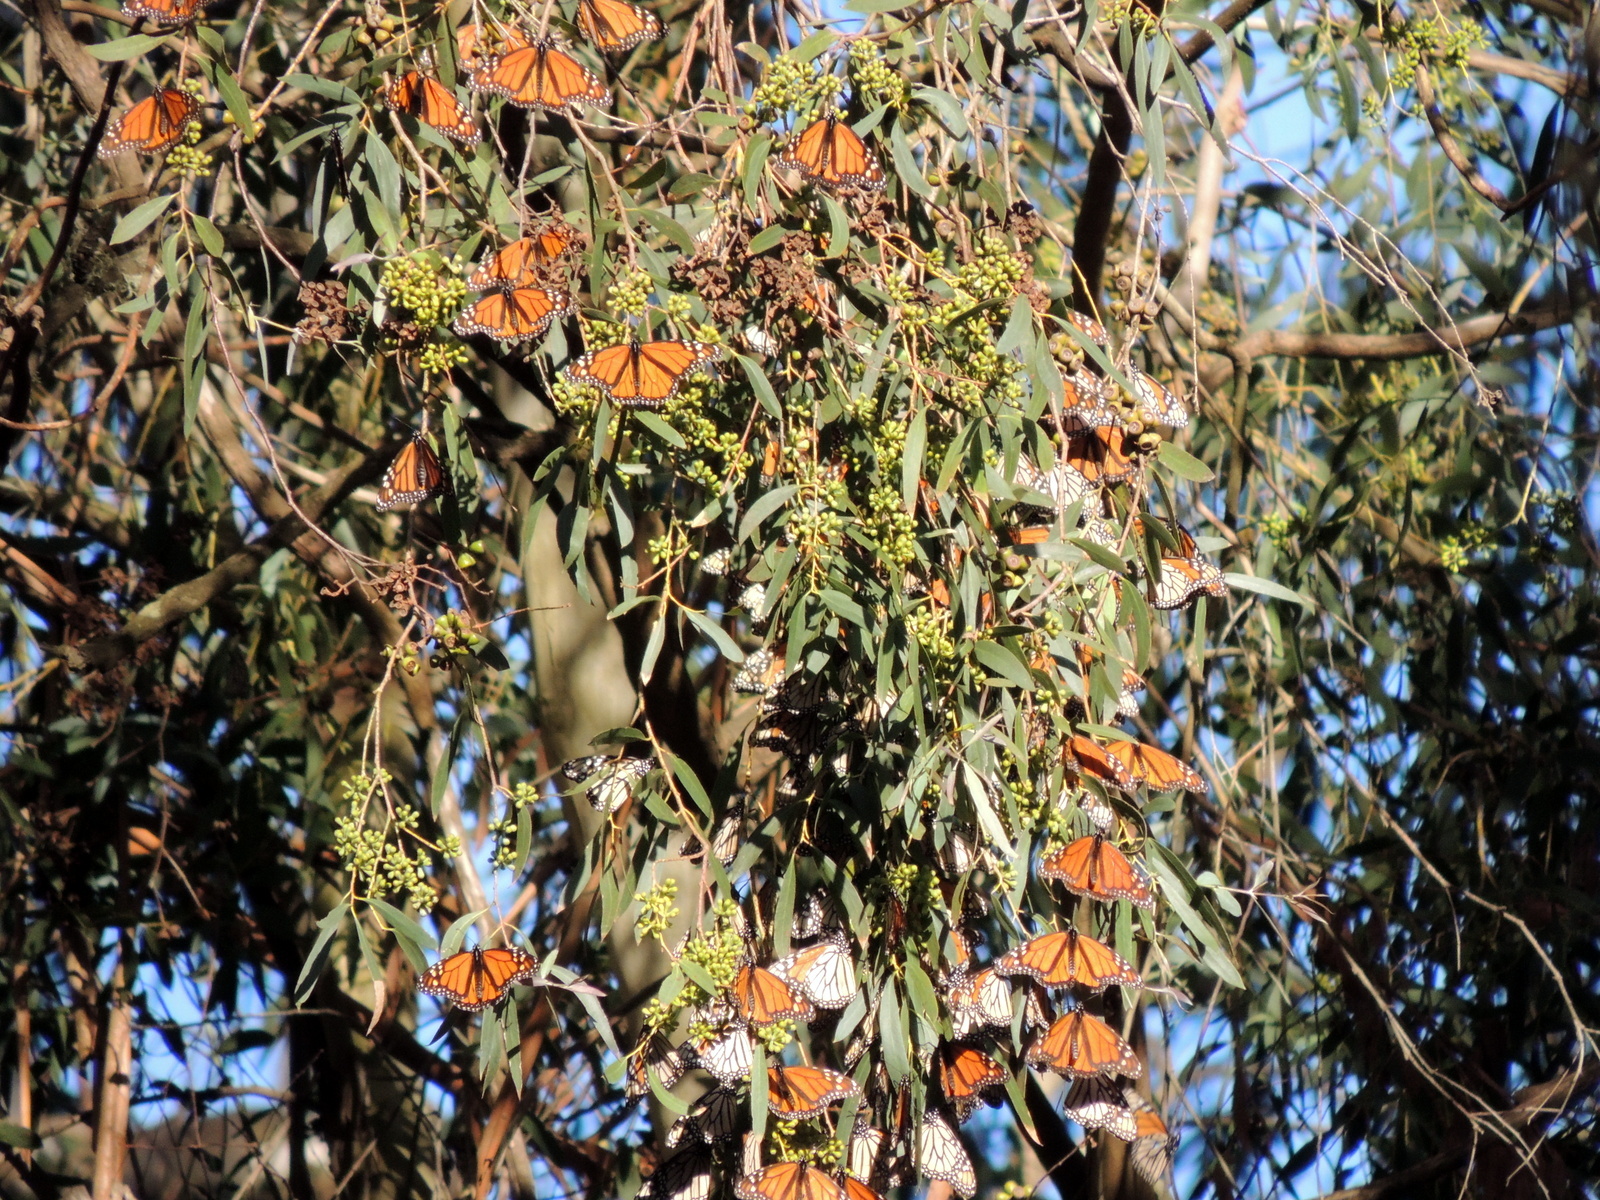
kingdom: Animalia
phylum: Arthropoda
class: Insecta
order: Lepidoptera
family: Nymphalidae
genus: Danaus
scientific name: Danaus plexippus
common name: Monarch
